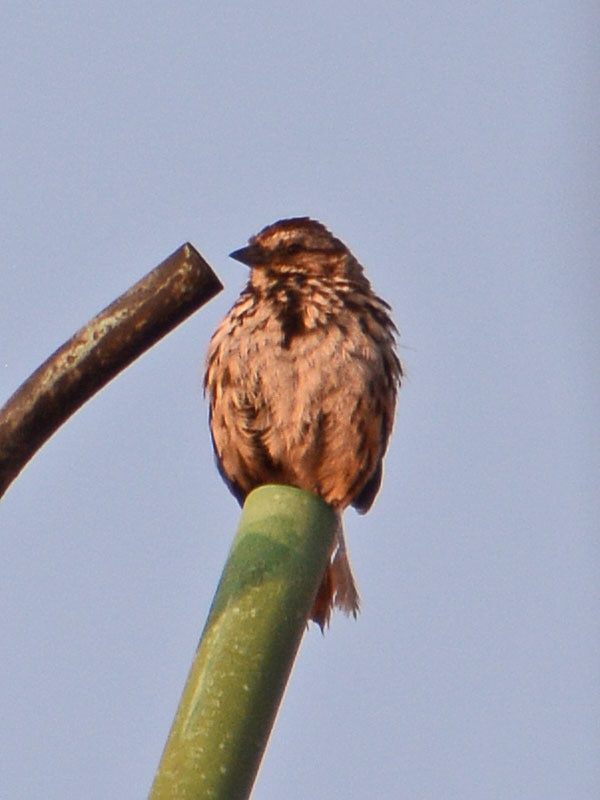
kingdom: Animalia
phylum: Chordata
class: Aves
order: Passeriformes
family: Passerellidae
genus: Melospiza
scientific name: Melospiza melodia
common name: Song sparrow
